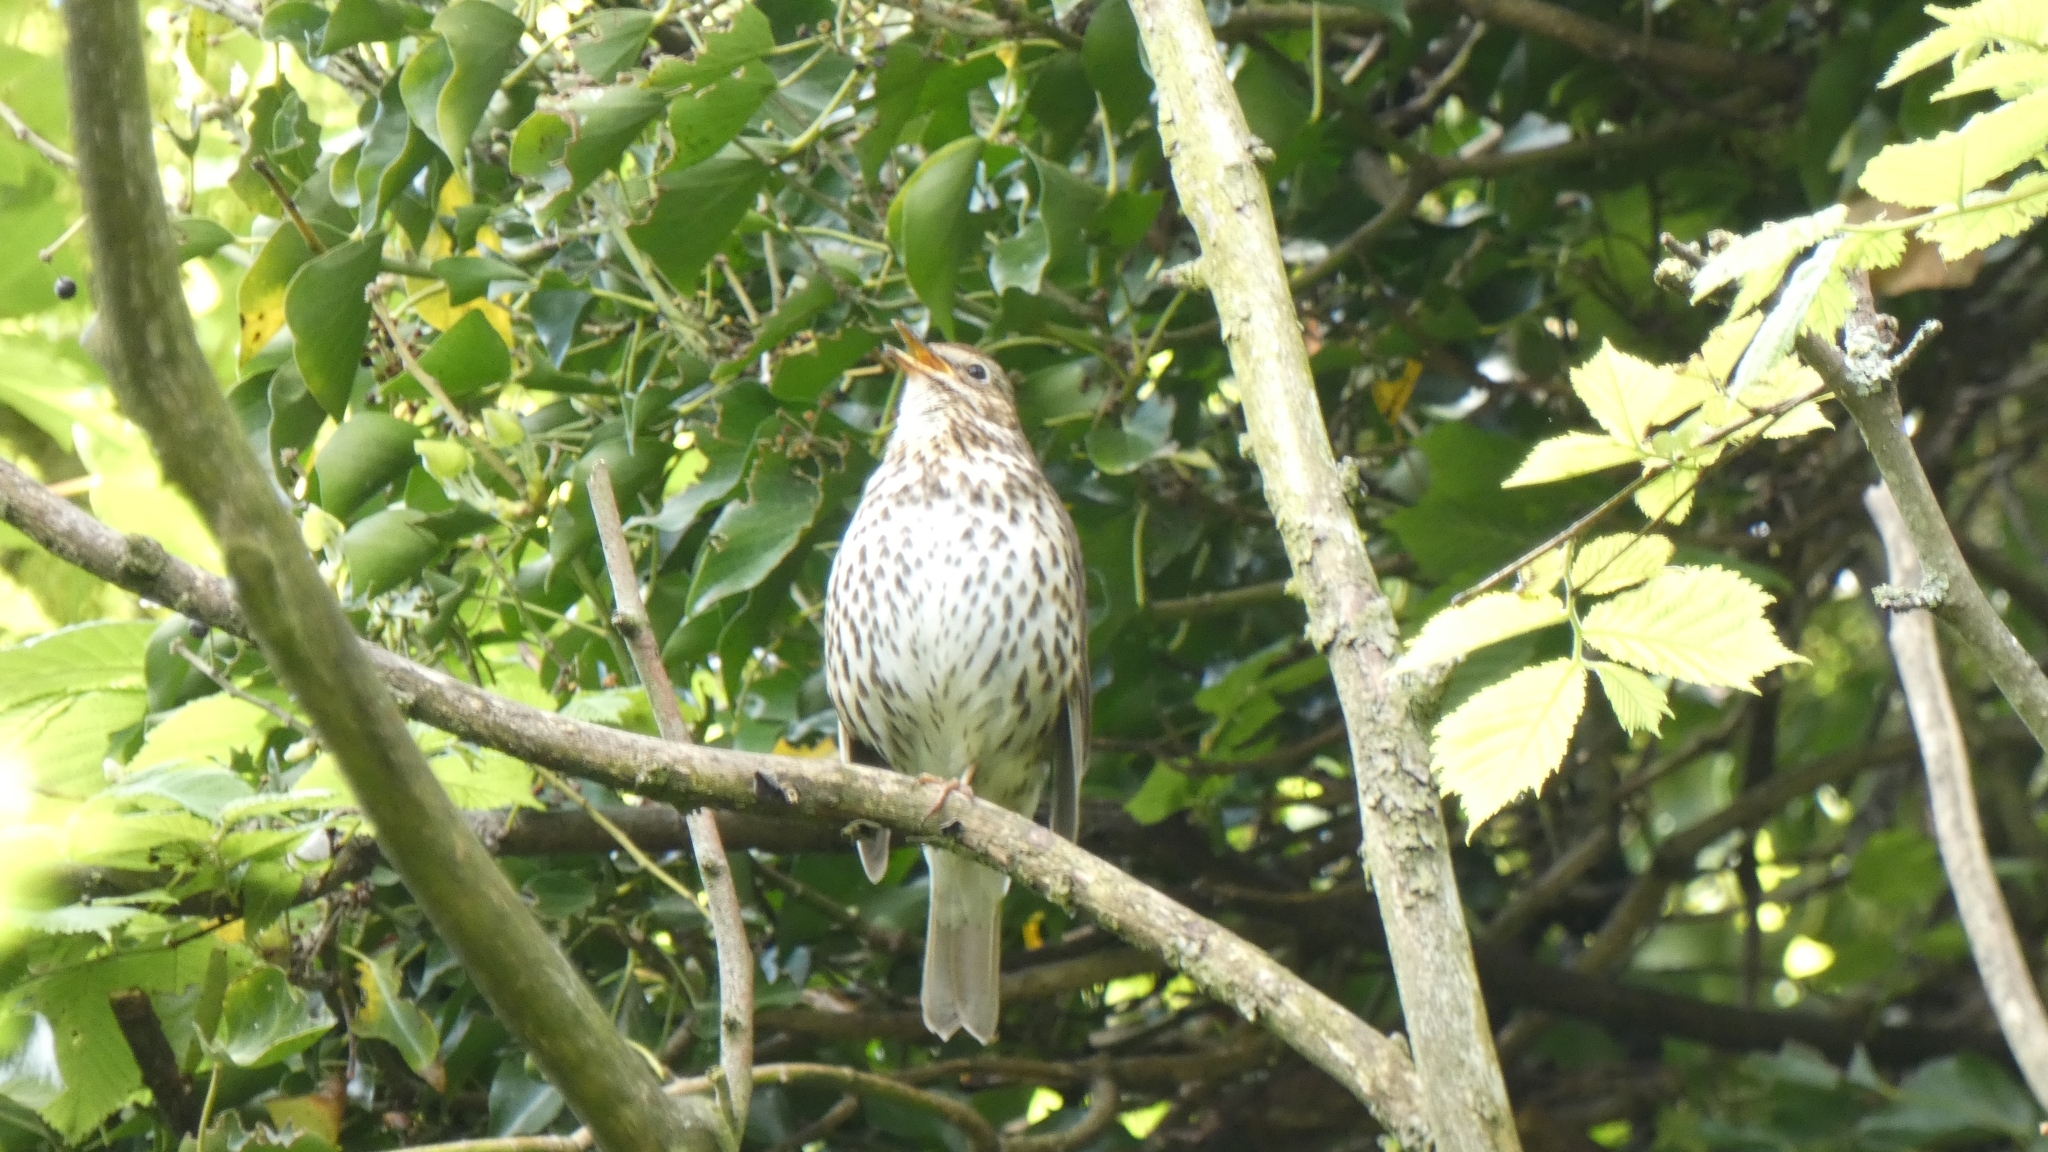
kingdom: Animalia
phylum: Chordata
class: Aves
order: Passeriformes
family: Turdidae
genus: Turdus
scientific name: Turdus philomelos
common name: Song thrush
